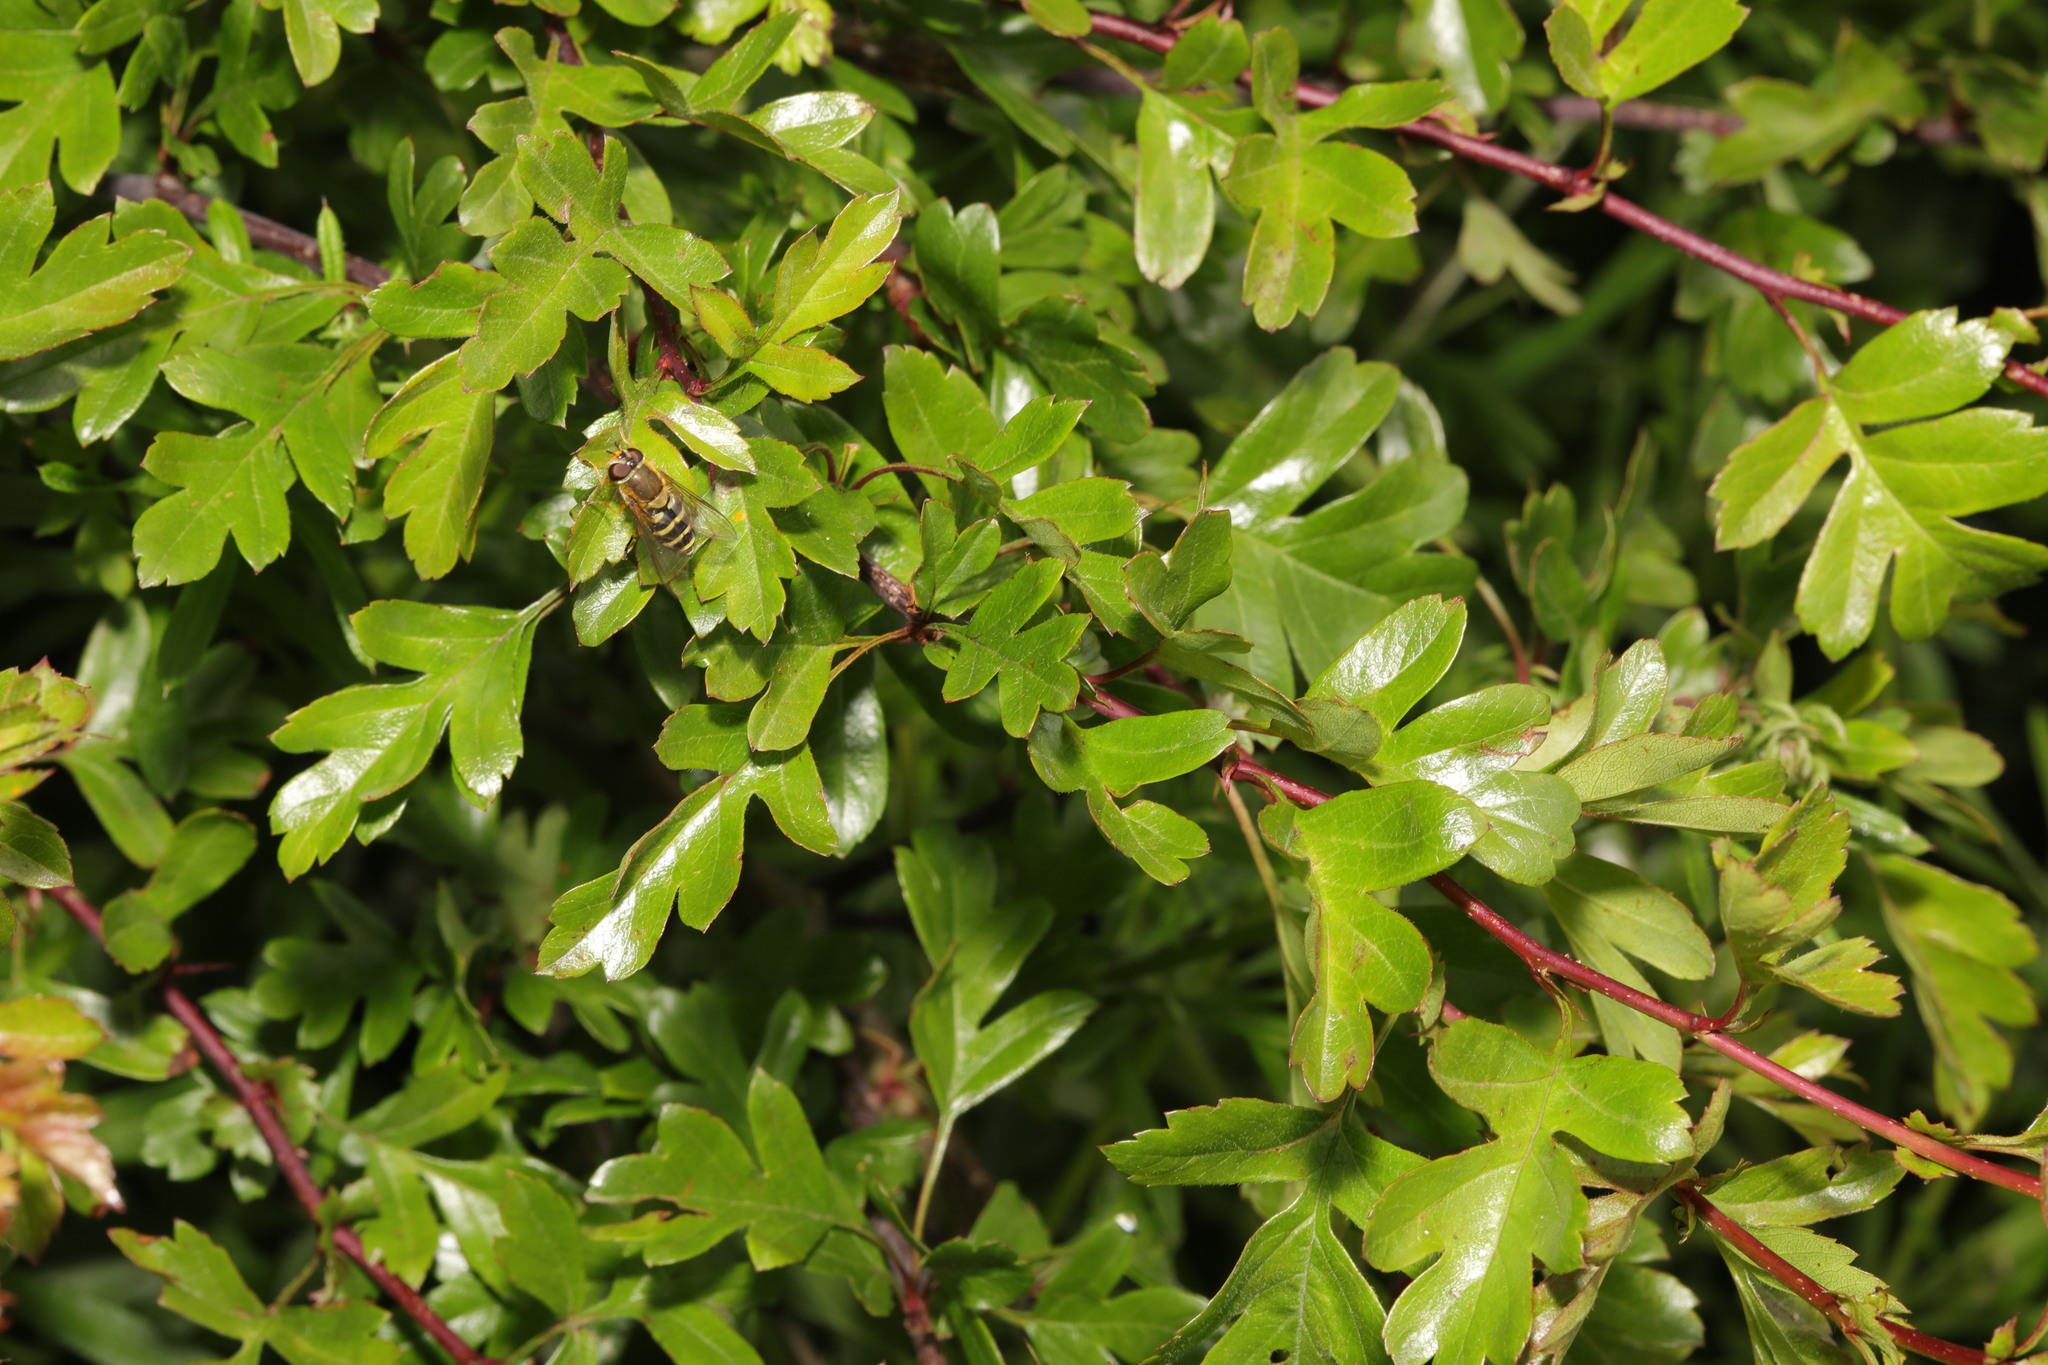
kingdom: Plantae
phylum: Tracheophyta
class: Magnoliopsida
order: Rosales
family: Rosaceae
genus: Crataegus
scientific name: Crataegus monogyna
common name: Hawthorn
